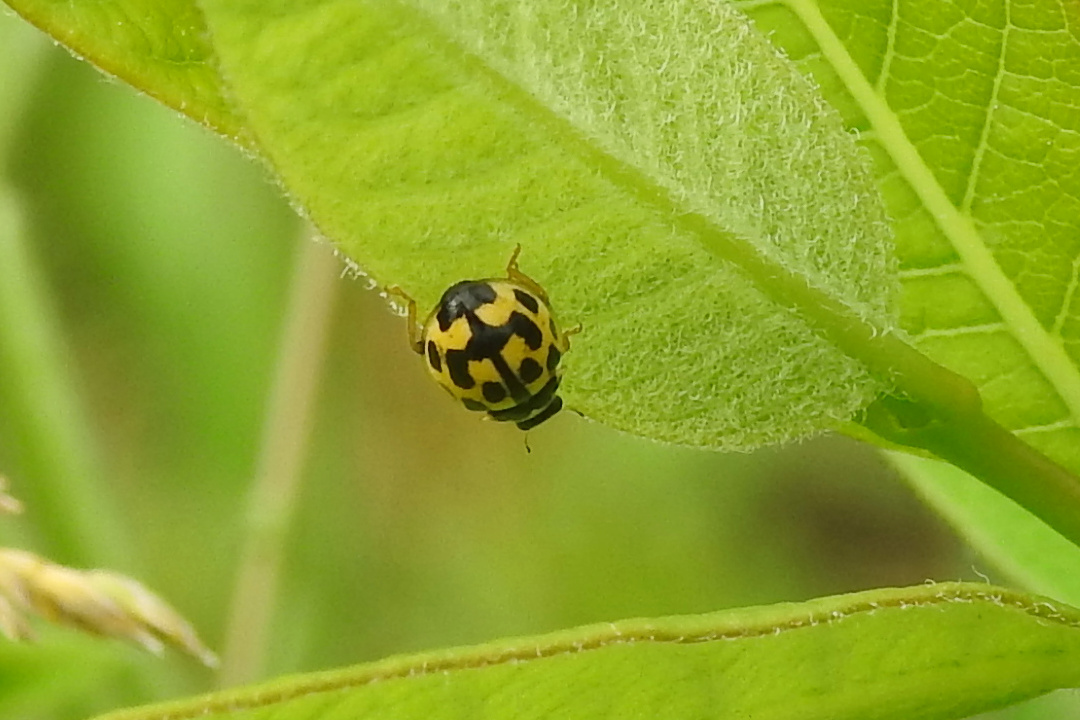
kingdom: Animalia
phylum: Arthropoda
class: Insecta
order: Coleoptera
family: Coccinellidae
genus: Propylaea
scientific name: Propylaea quatuordecimpunctata
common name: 14-spotted ladybird beetle
